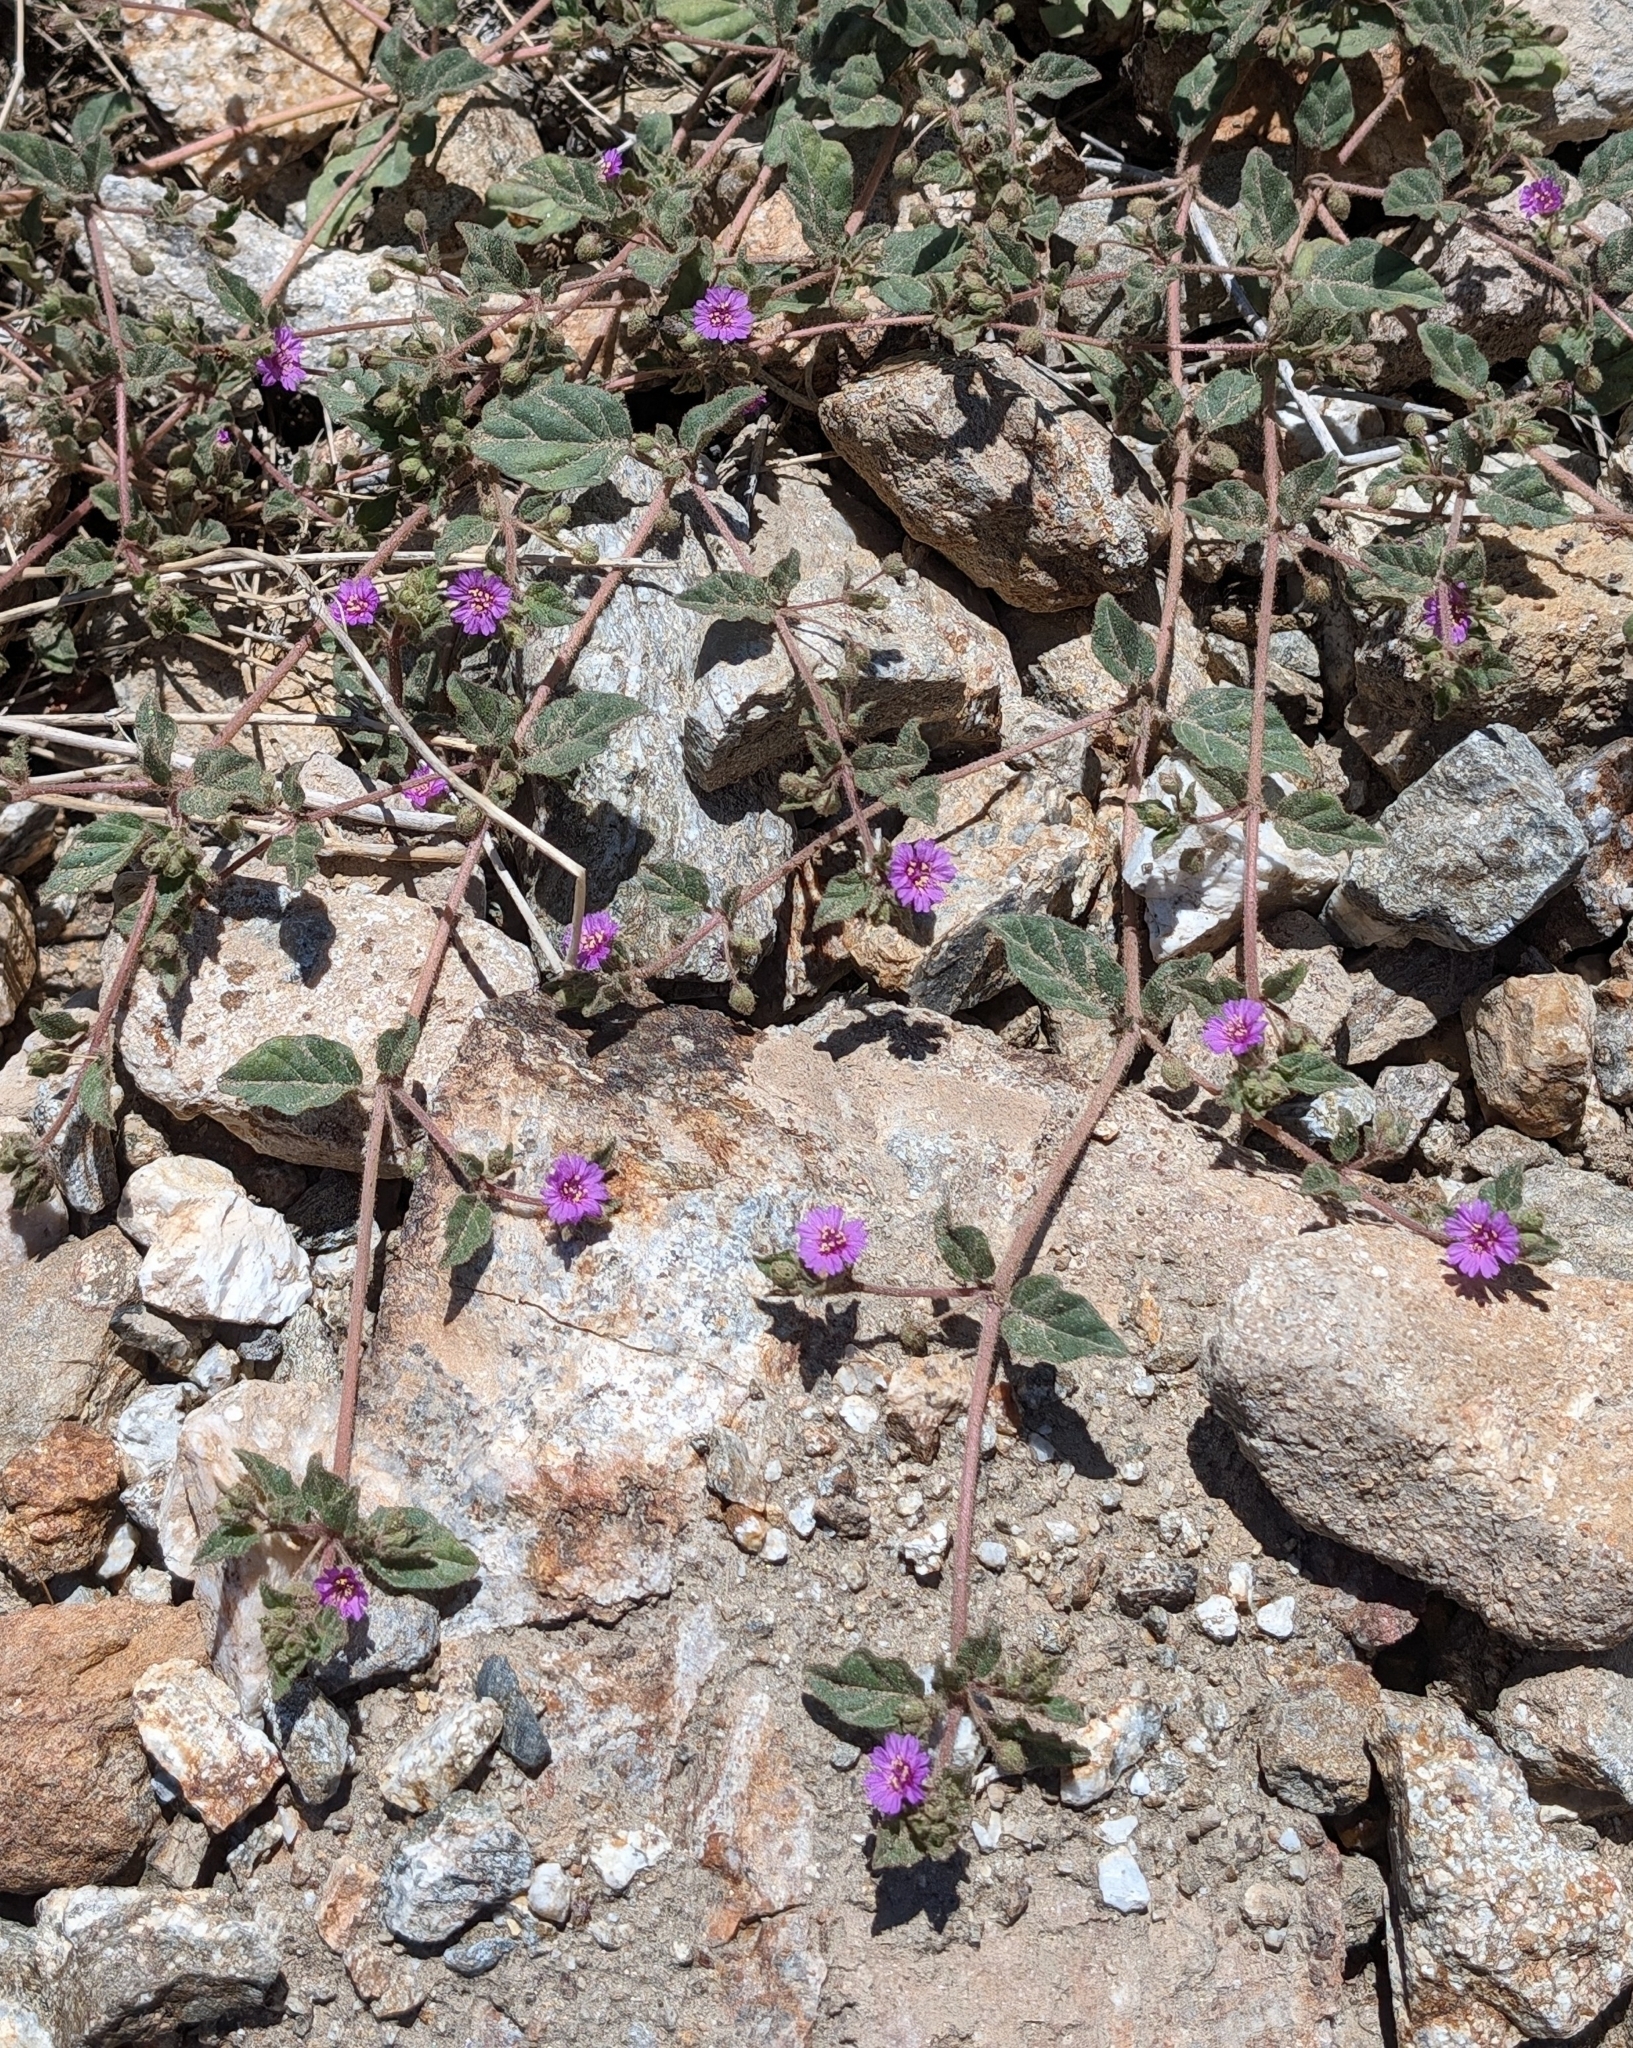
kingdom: Plantae
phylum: Tracheophyta
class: Magnoliopsida
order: Caryophyllales
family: Nyctaginaceae
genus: Allionia
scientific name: Allionia incarnata
